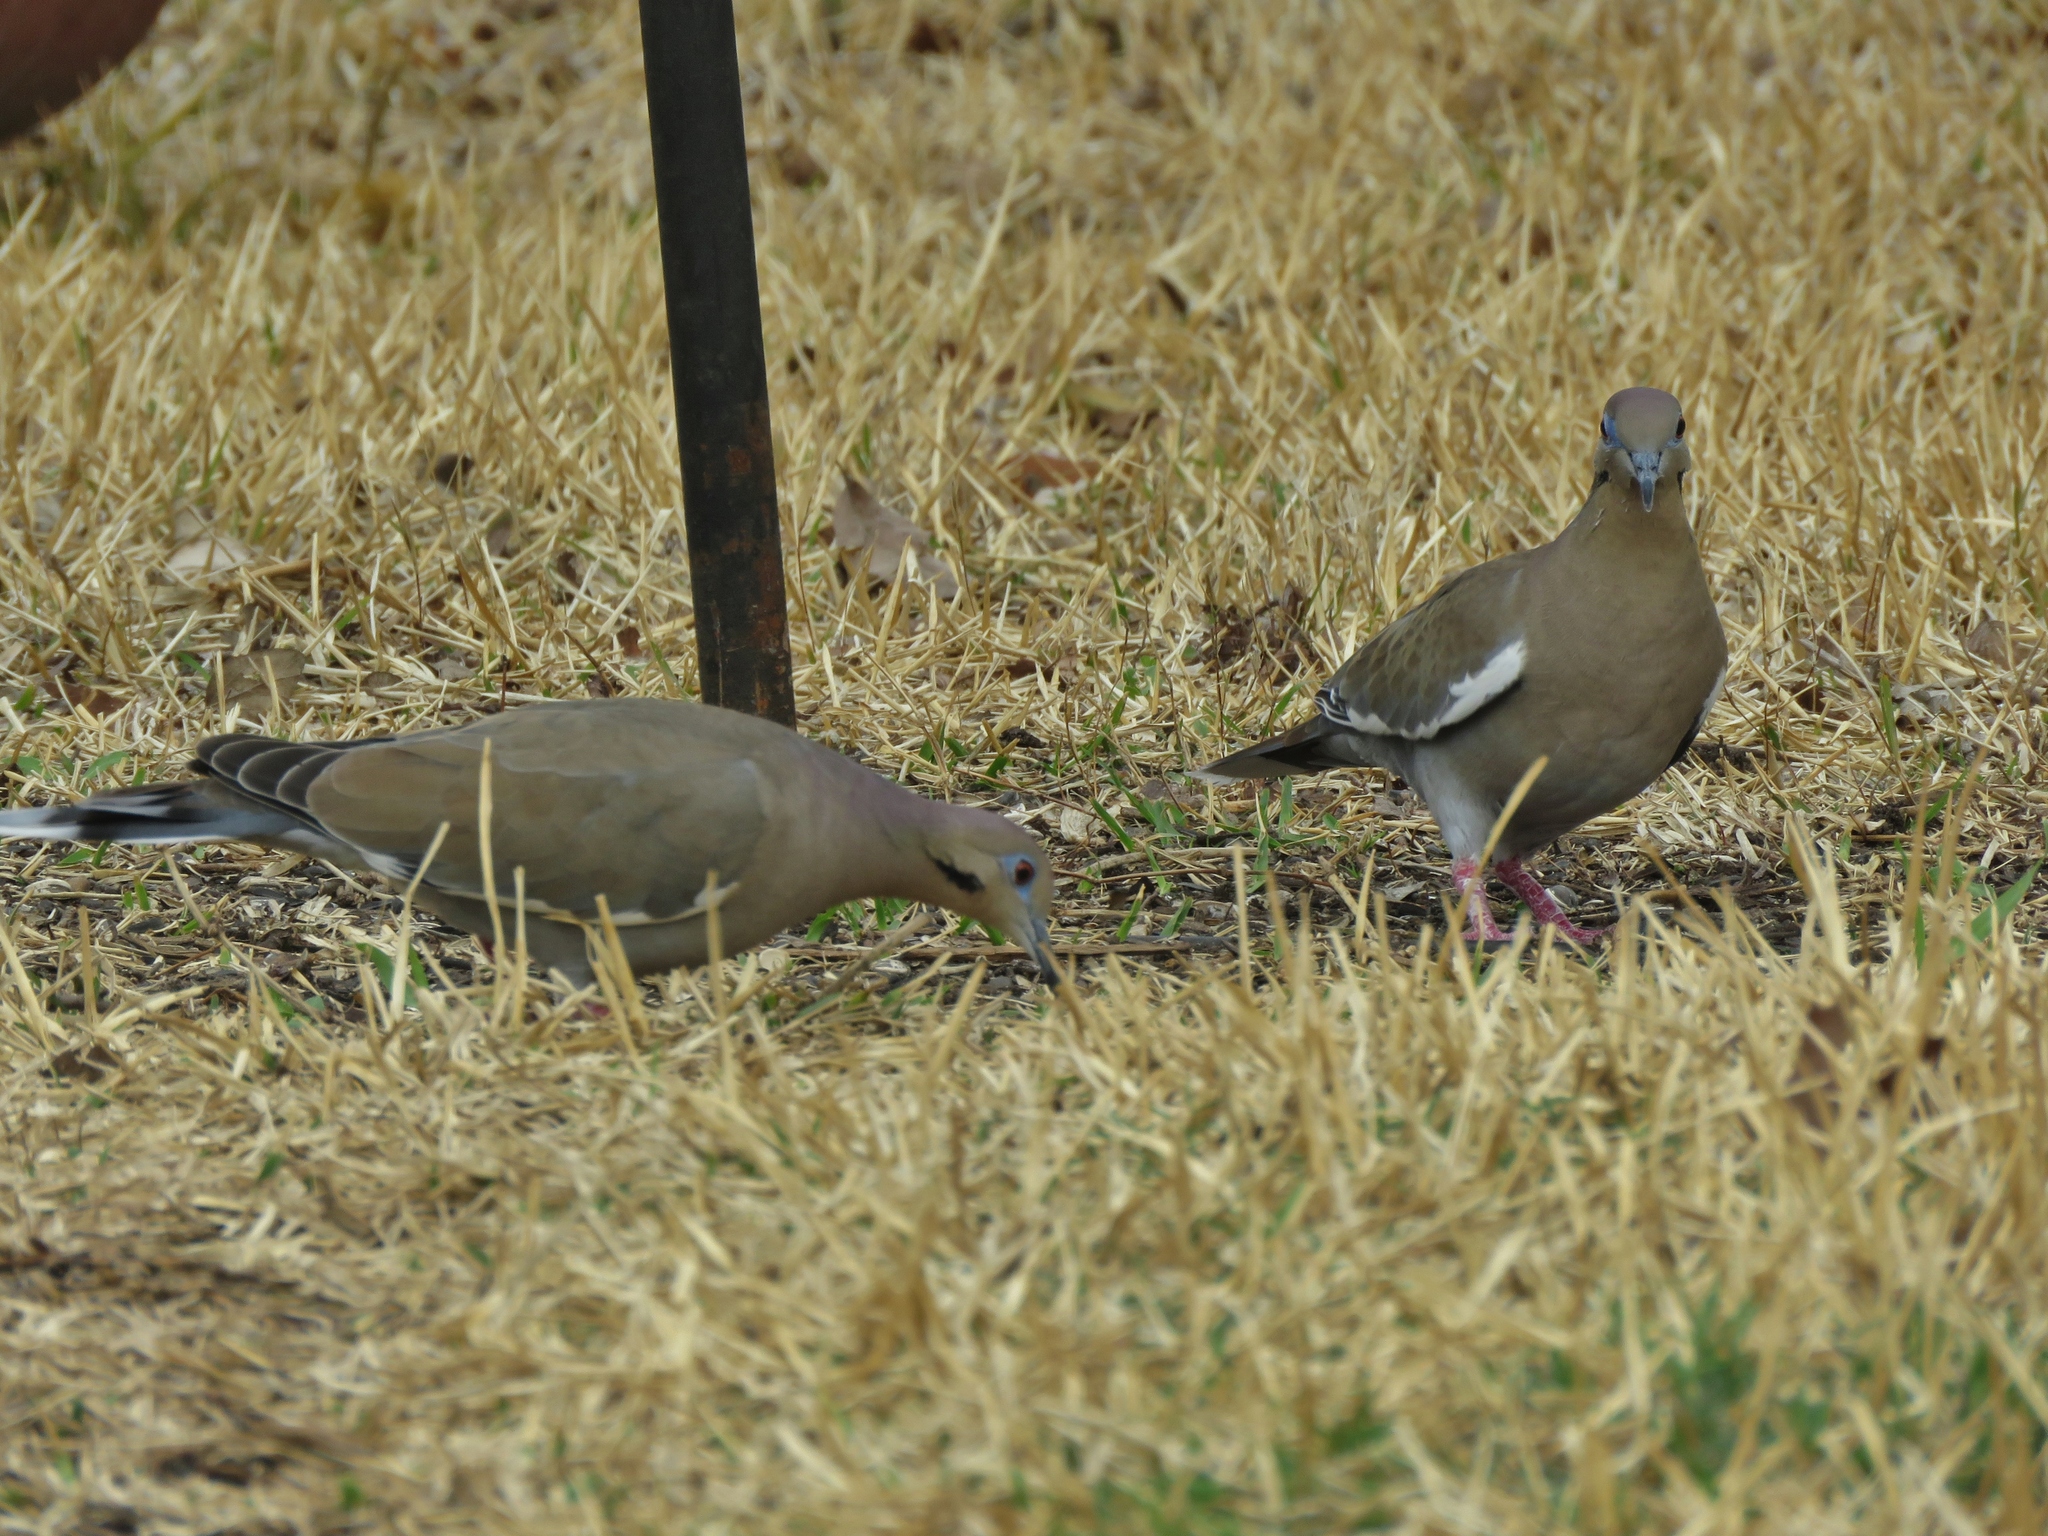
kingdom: Animalia
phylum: Chordata
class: Aves
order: Columbiformes
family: Columbidae
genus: Zenaida
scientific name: Zenaida asiatica
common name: White-winged dove
